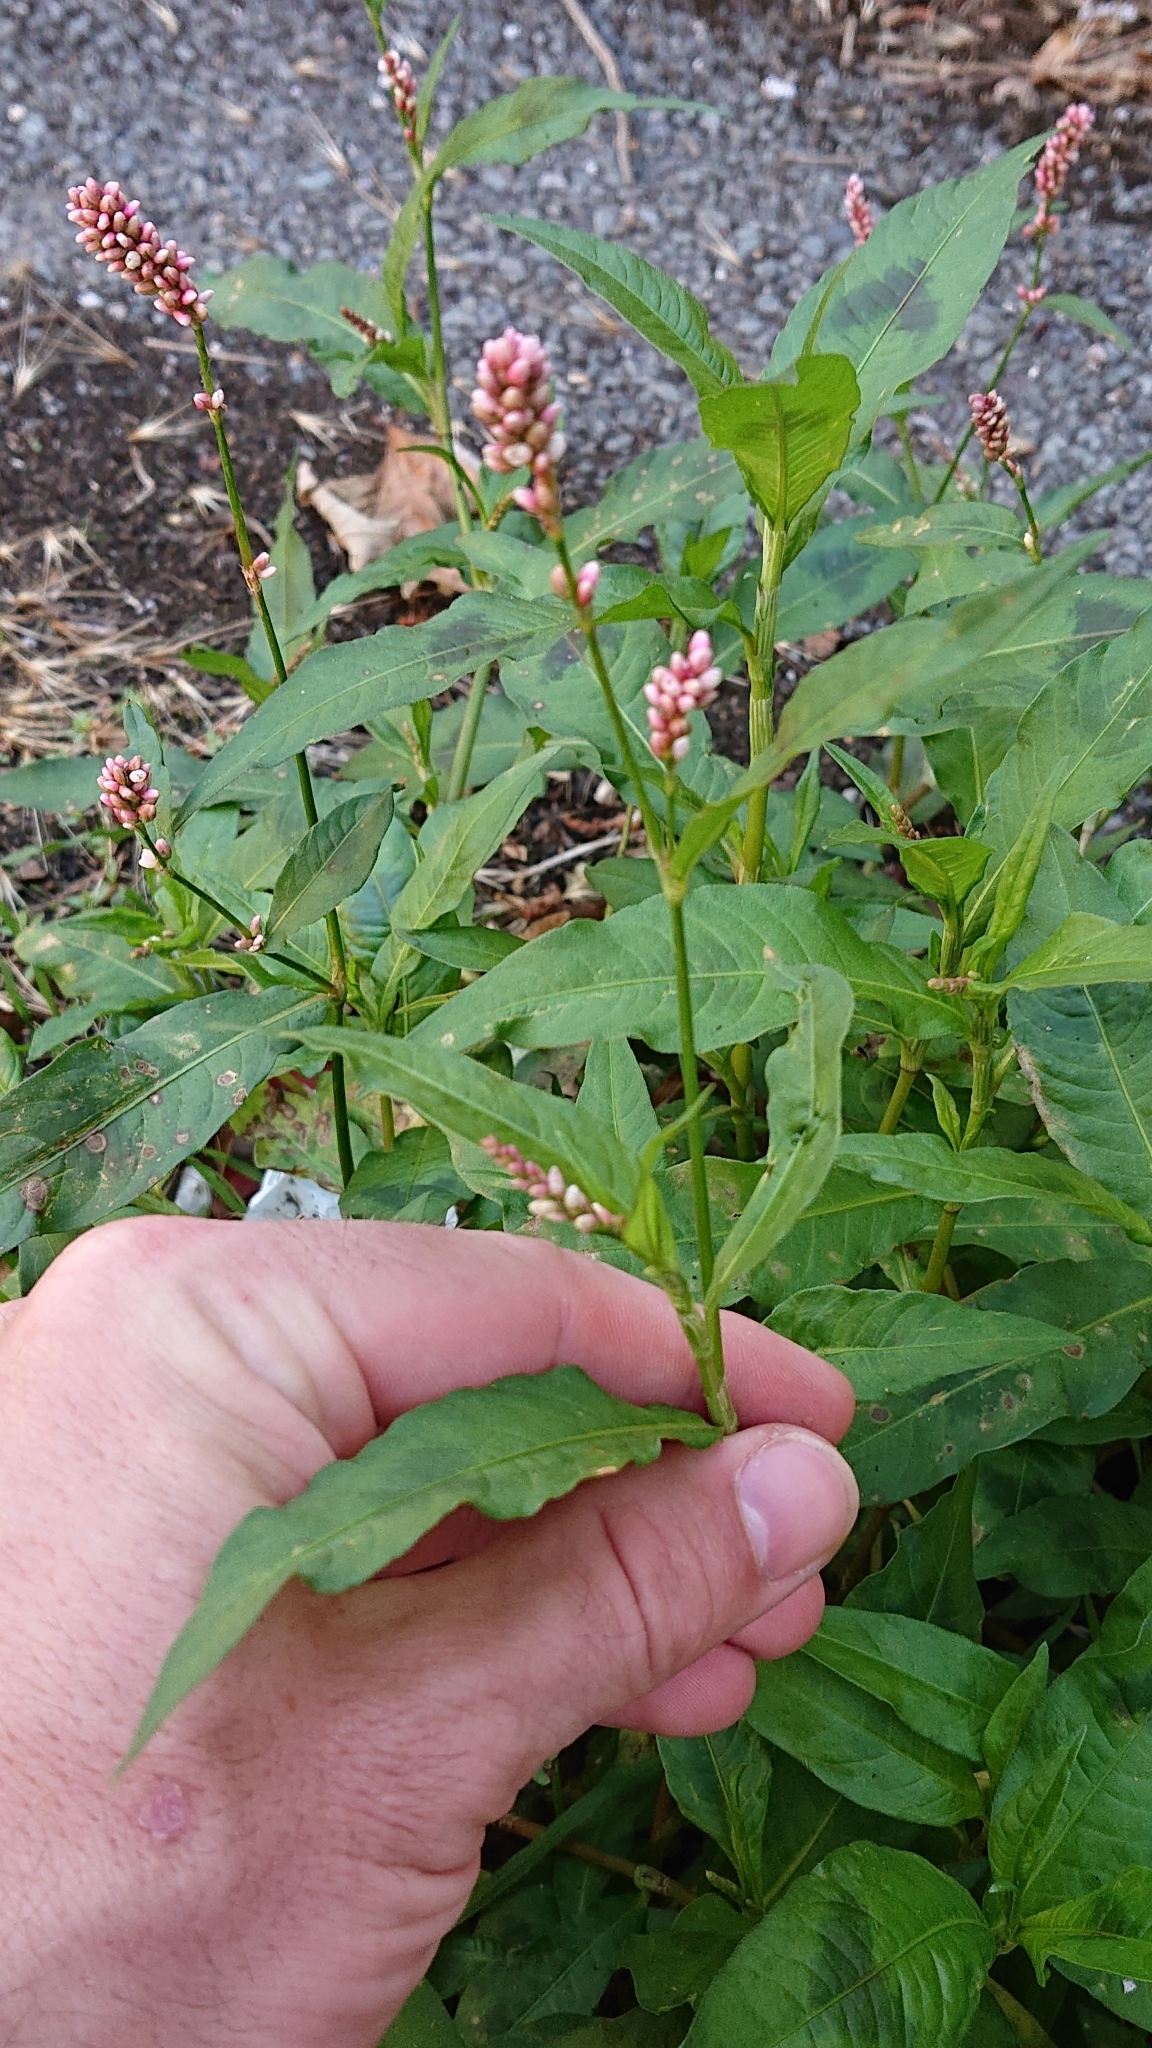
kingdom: Plantae
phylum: Tracheophyta
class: Magnoliopsida
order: Caryophyllales
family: Polygonaceae
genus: Persicaria
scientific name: Persicaria maculosa
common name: Redshank
